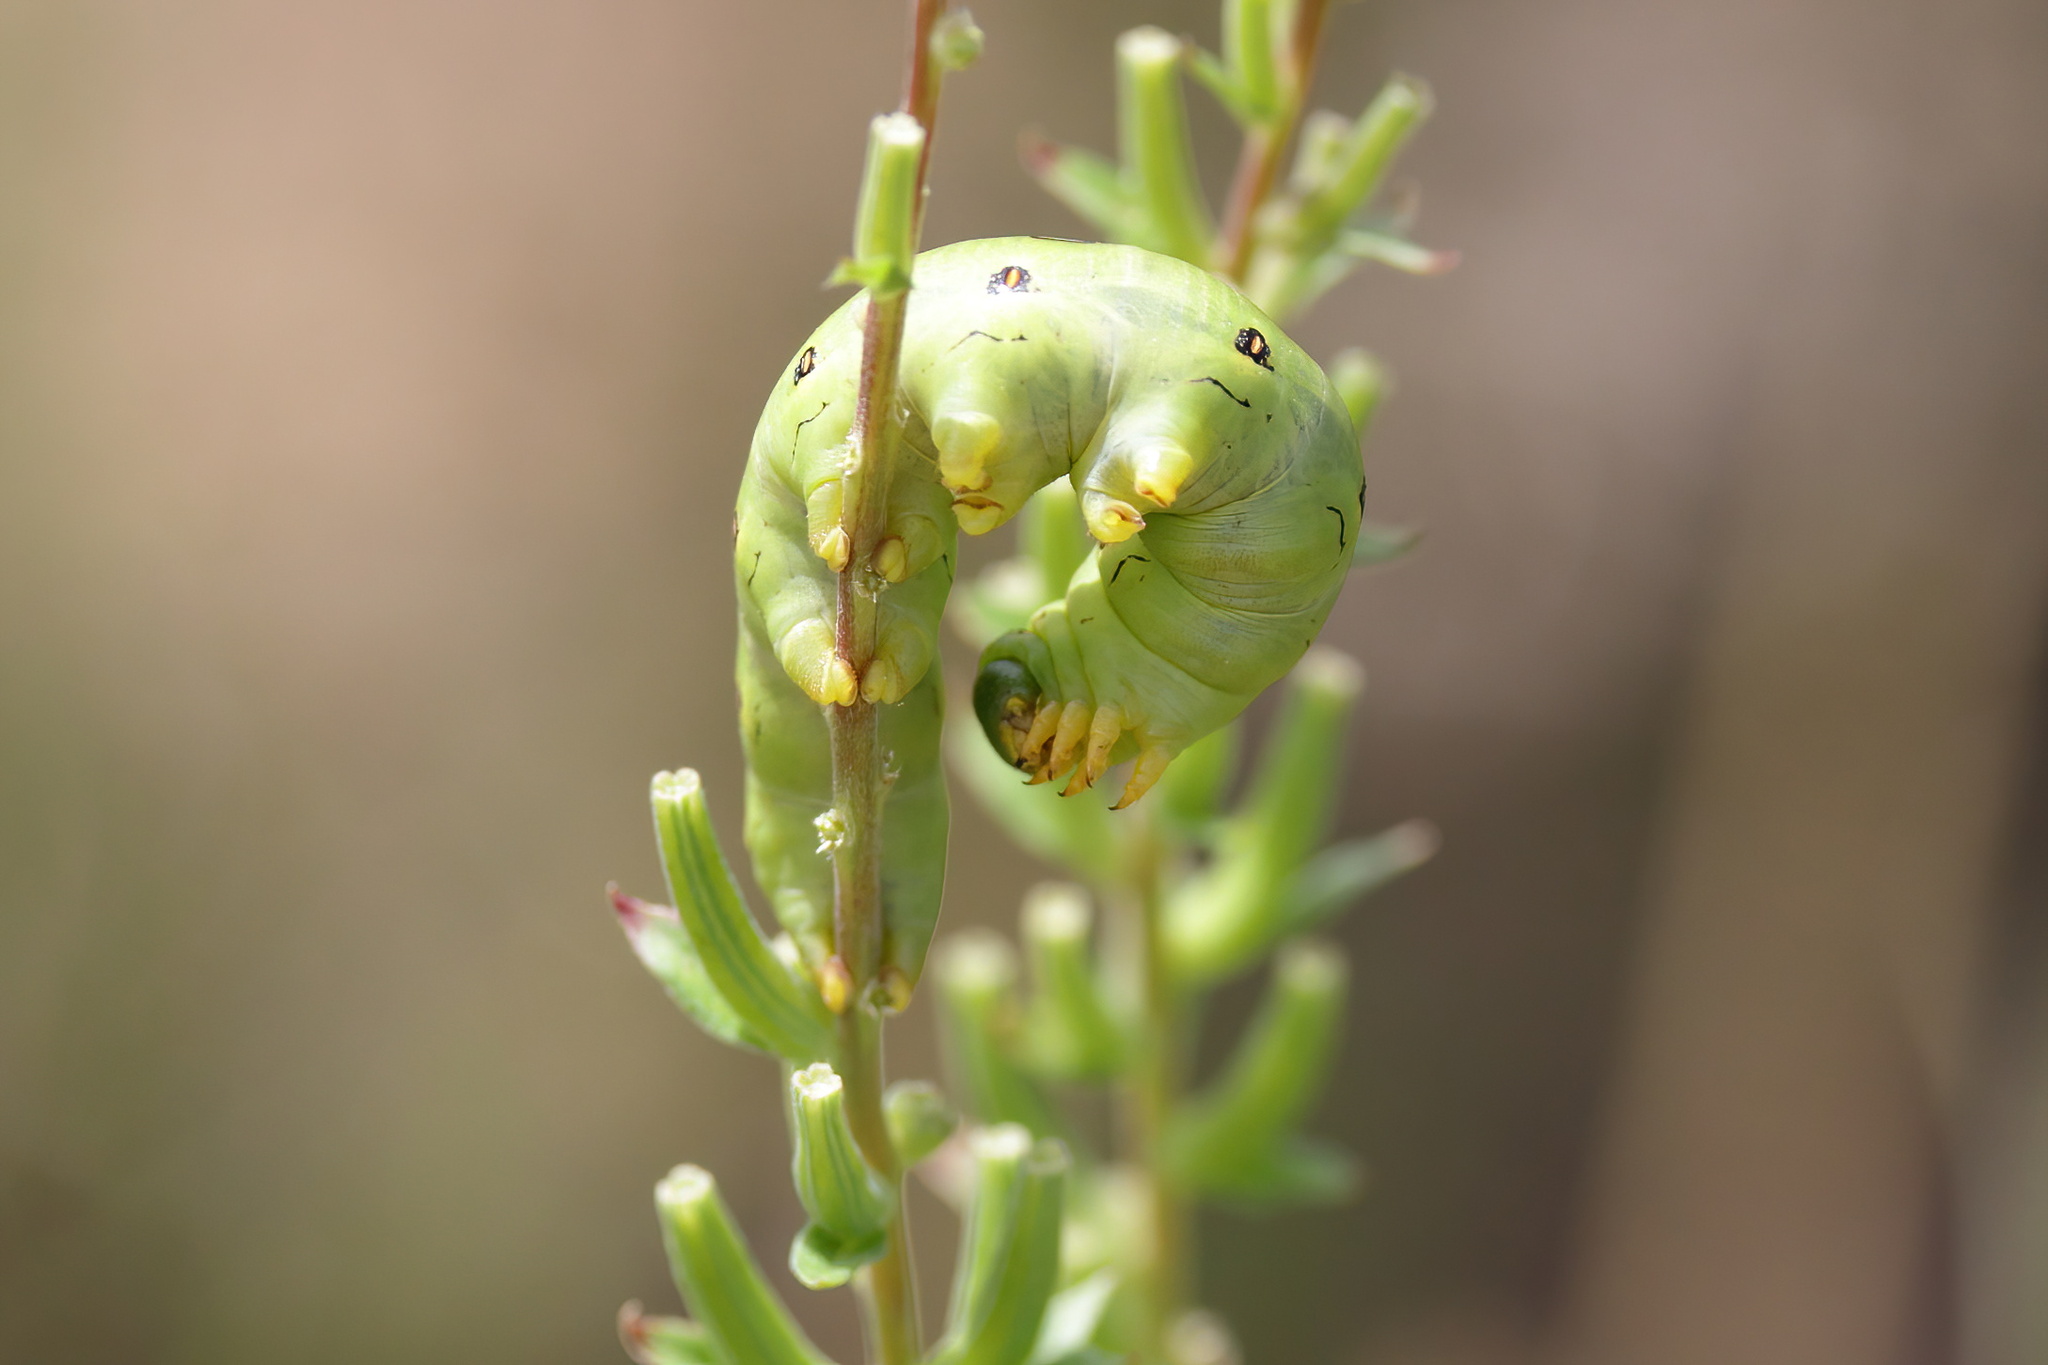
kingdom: Animalia
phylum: Arthropoda
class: Insecta
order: Lepidoptera
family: Sphingidae
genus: Hyles
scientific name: Hyles lineata
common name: White-lined sphinx
